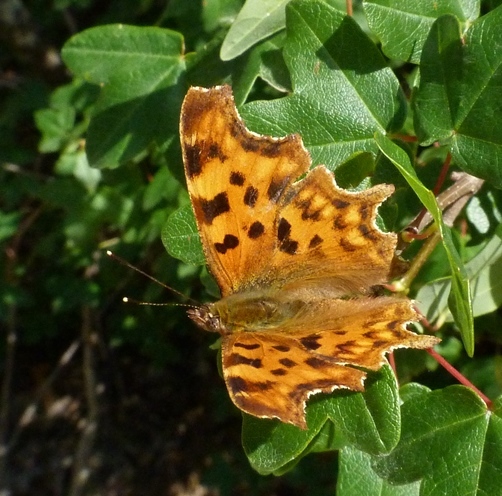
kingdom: Animalia
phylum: Arthropoda
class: Insecta
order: Lepidoptera
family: Nymphalidae
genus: Polygonia
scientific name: Polygonia c-album
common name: Comma
